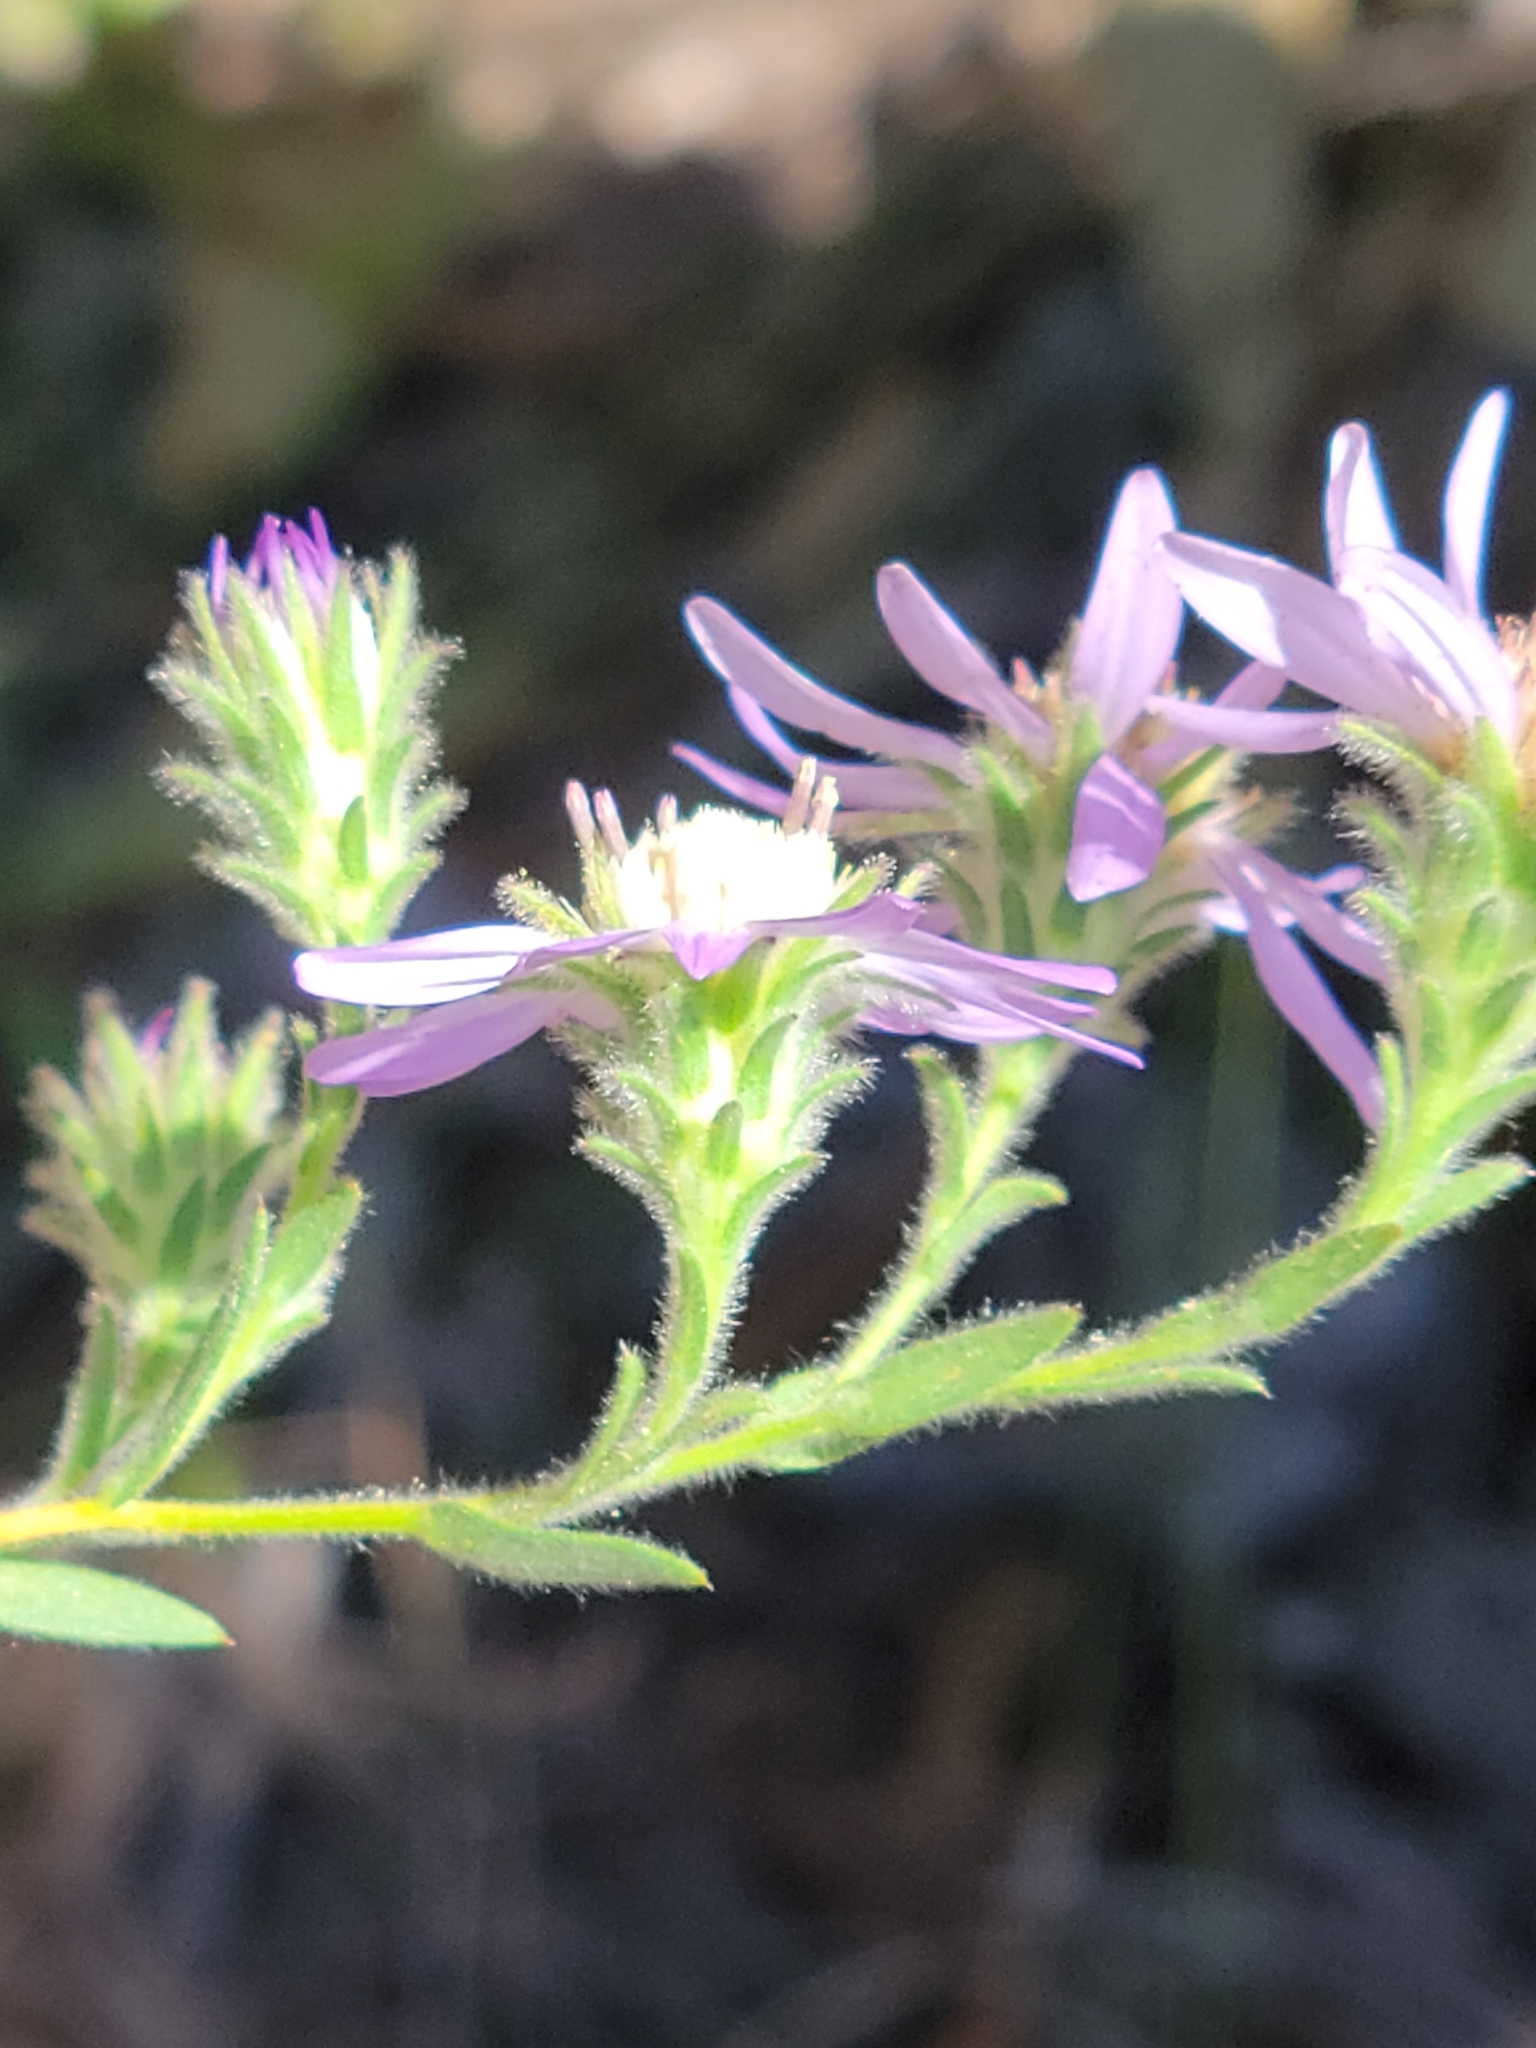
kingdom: Plantae
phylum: Tracheophyta
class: Magnoliopsida
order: Asterales
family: Asteraceae
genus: Symphyotrichum
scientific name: Symphyotrichum plumosum
